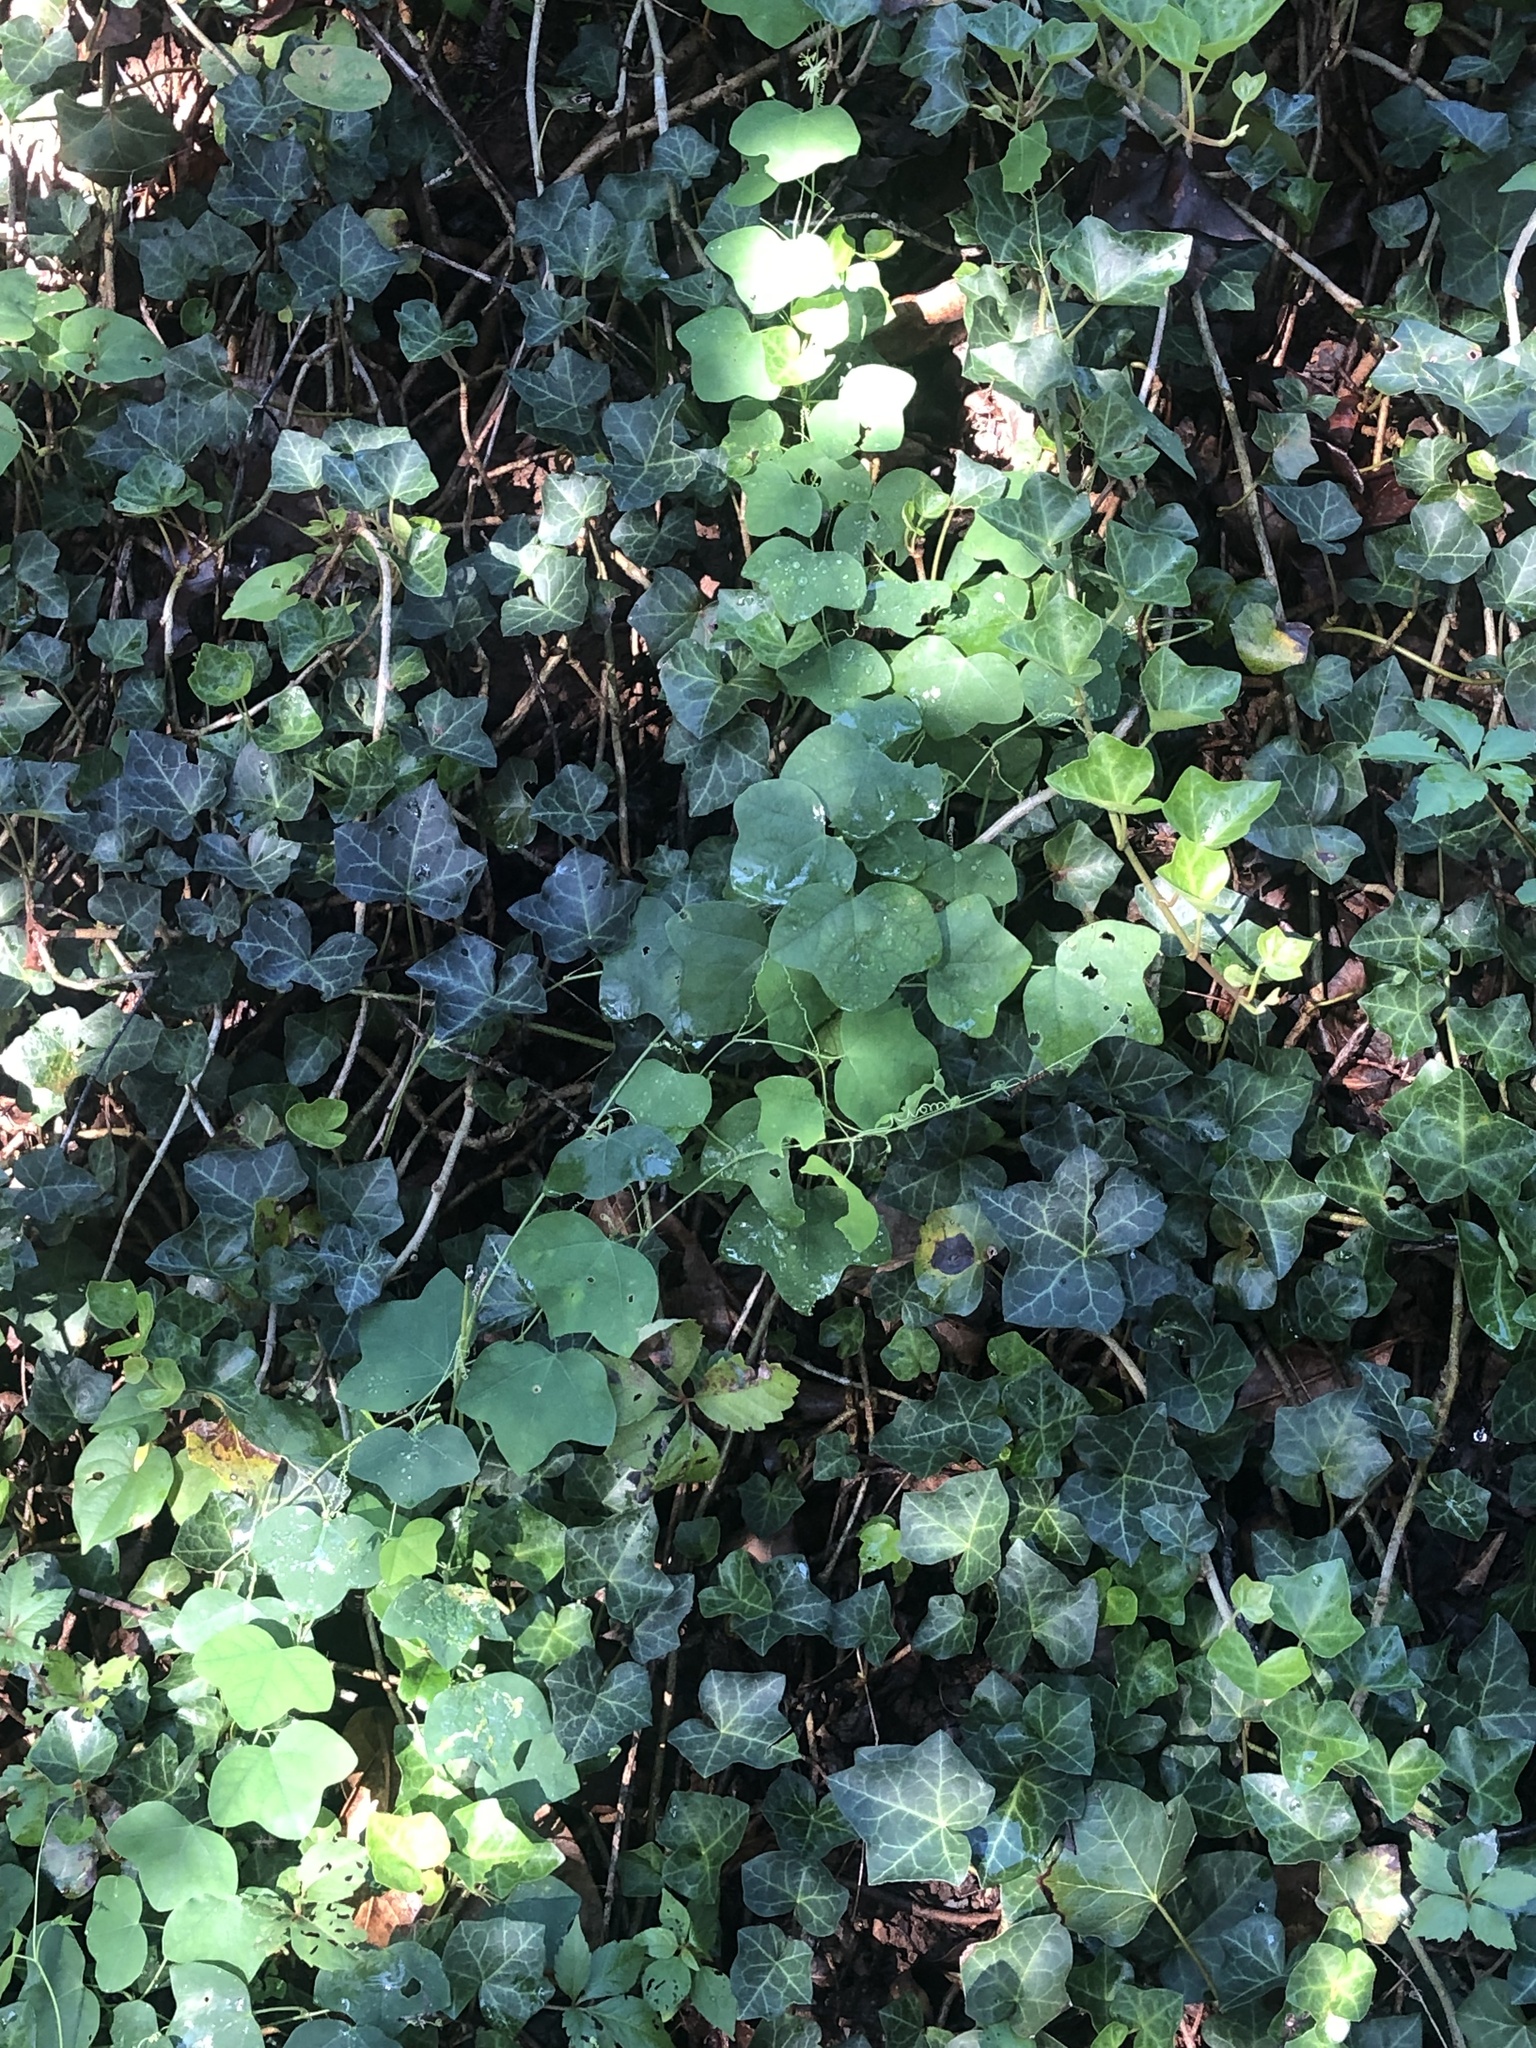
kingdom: Plantae
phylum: Tracheophyta
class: Magnoliopsida
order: Malpighiales
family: Passifloraceae
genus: Passiflora
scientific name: Passiflora lutea
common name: Yellow passionflower
